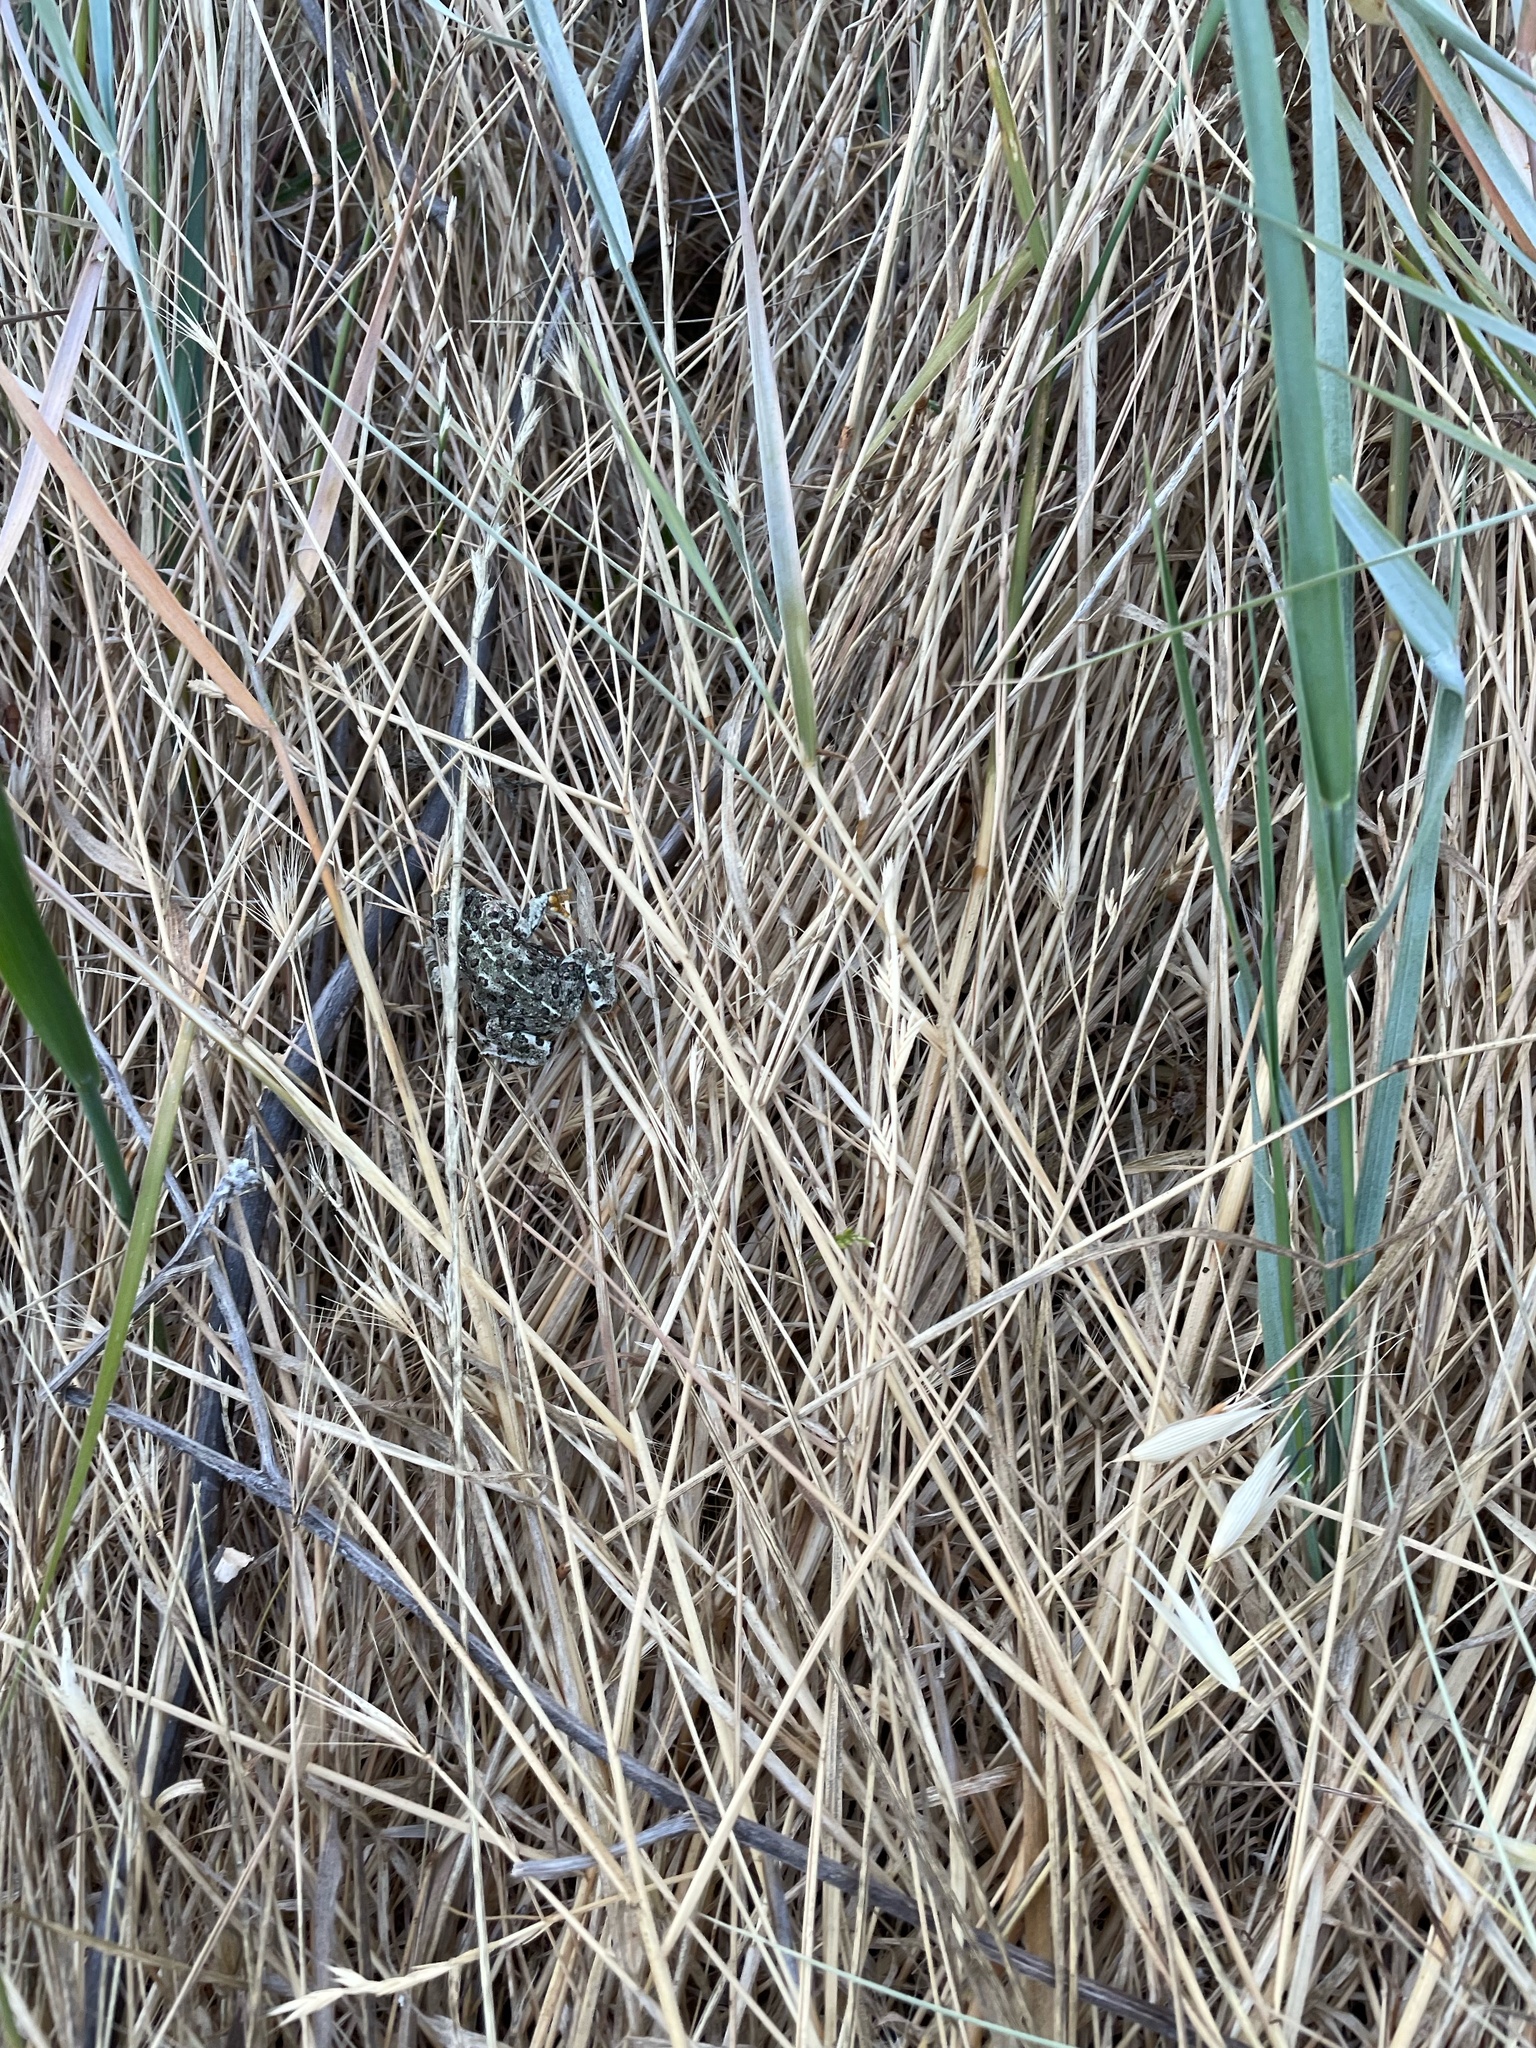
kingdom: Animalia
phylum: Chordata
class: Amphibia
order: Anura
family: Bufonidae
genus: Anaxyrus
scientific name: Anaxyrus boreas
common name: Western toad
